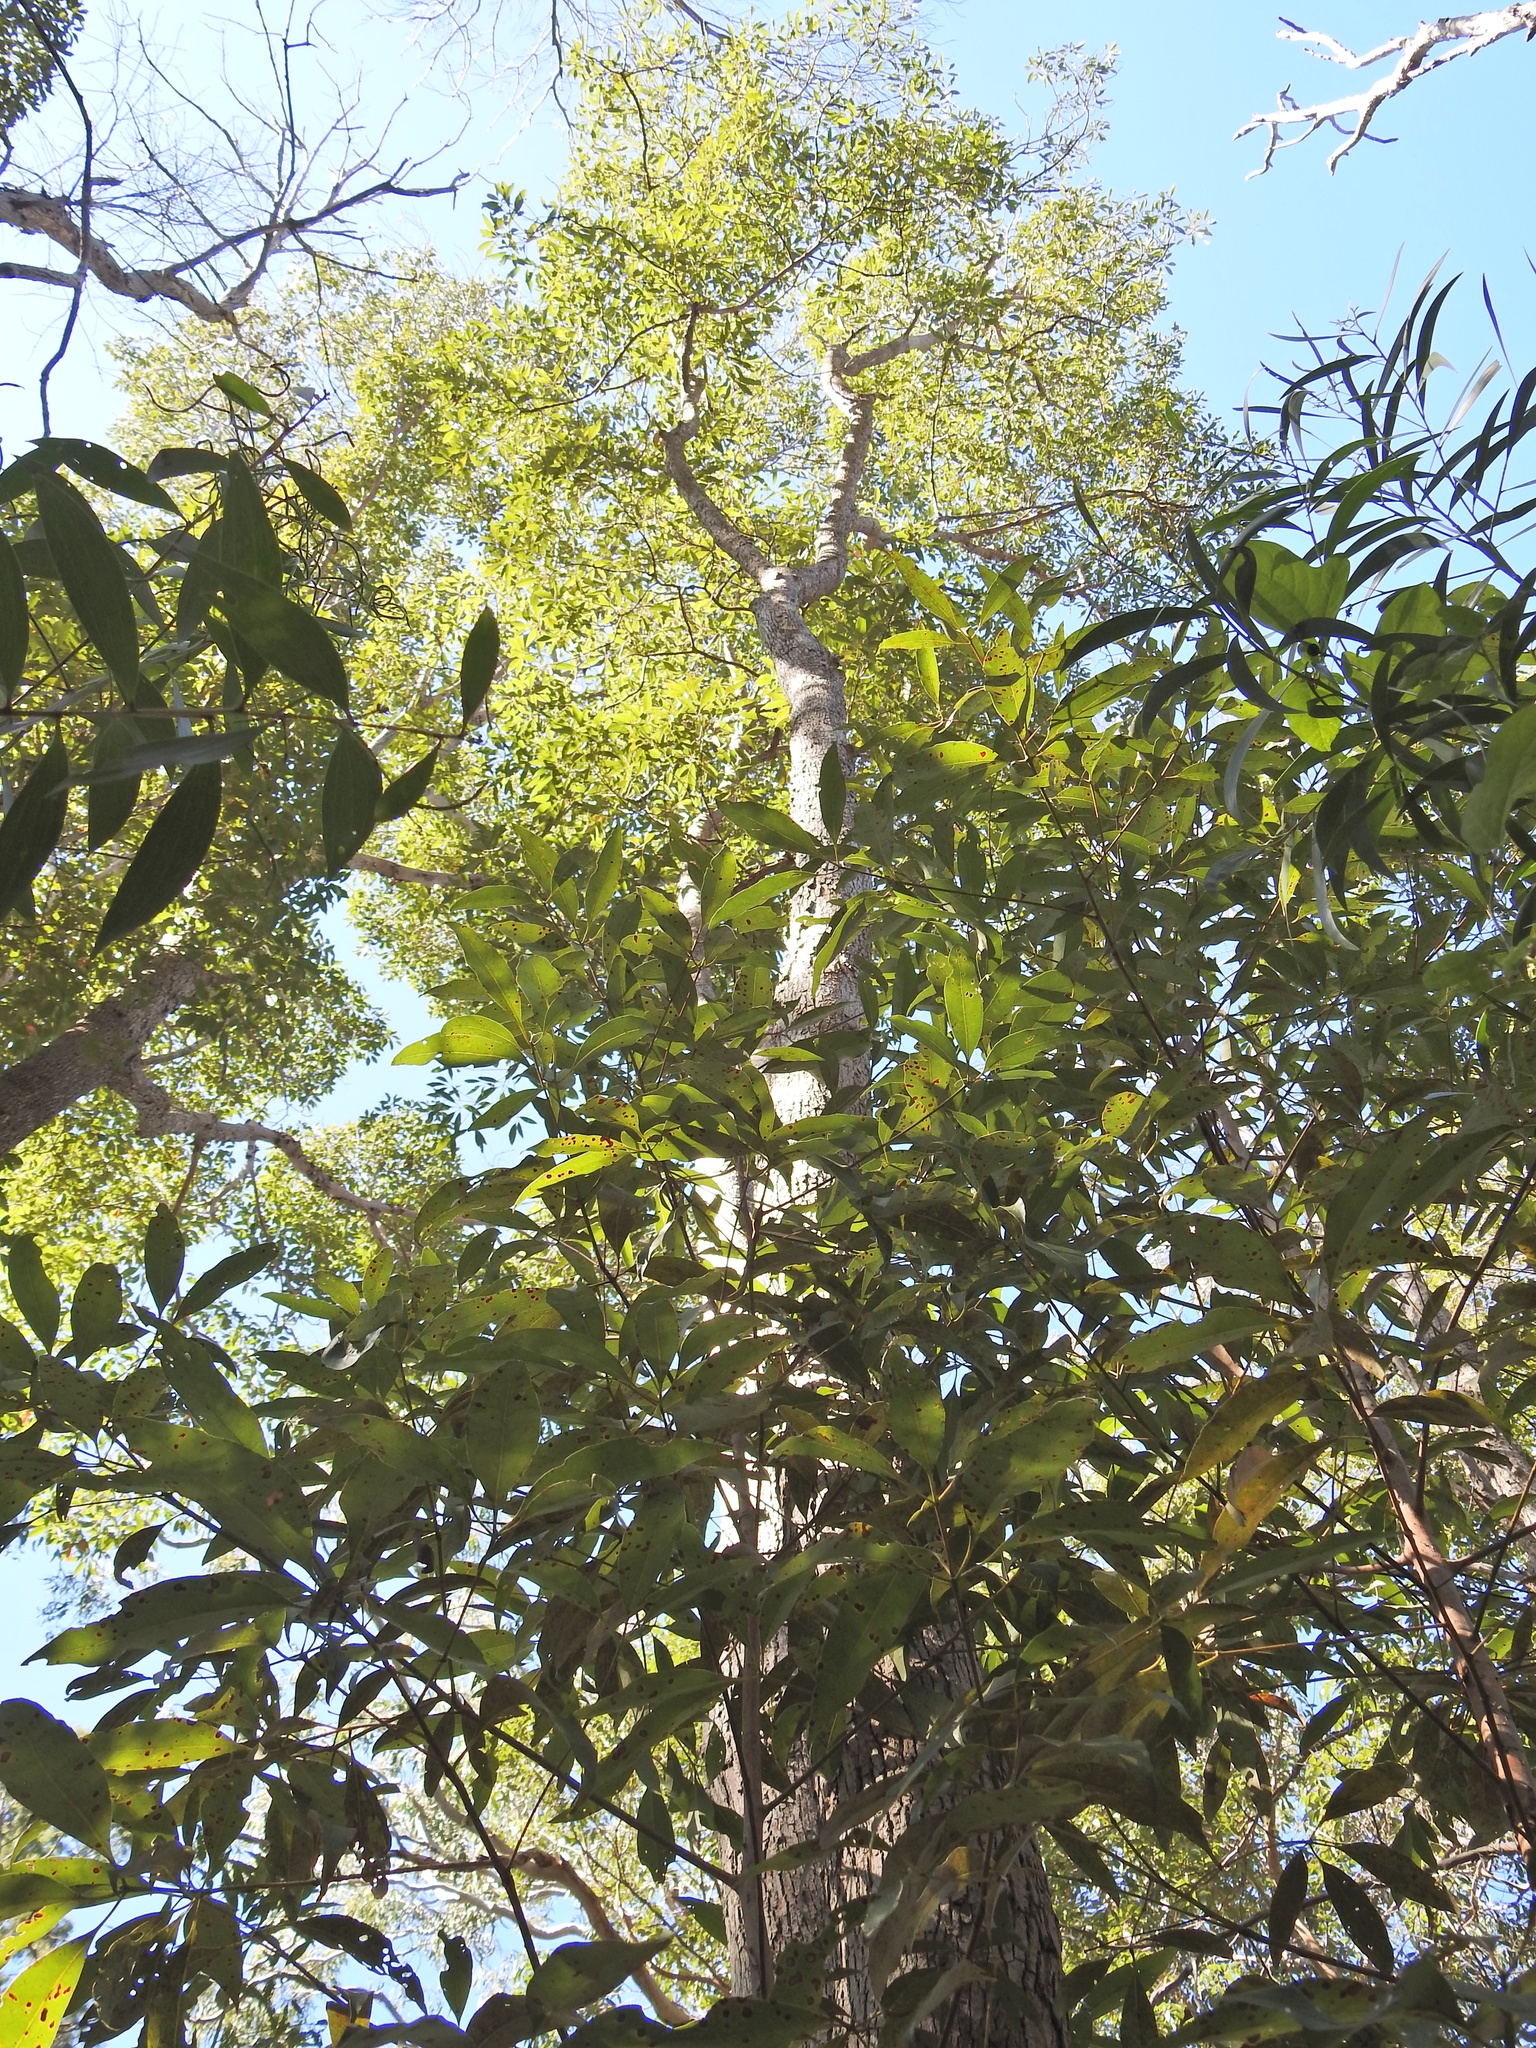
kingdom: Plantae
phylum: Tracheophyta
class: Magnoliopsida
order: Myrtales
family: Myrtaceae
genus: Lophostemon
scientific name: Lophostemon confertus
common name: Brisbane box
